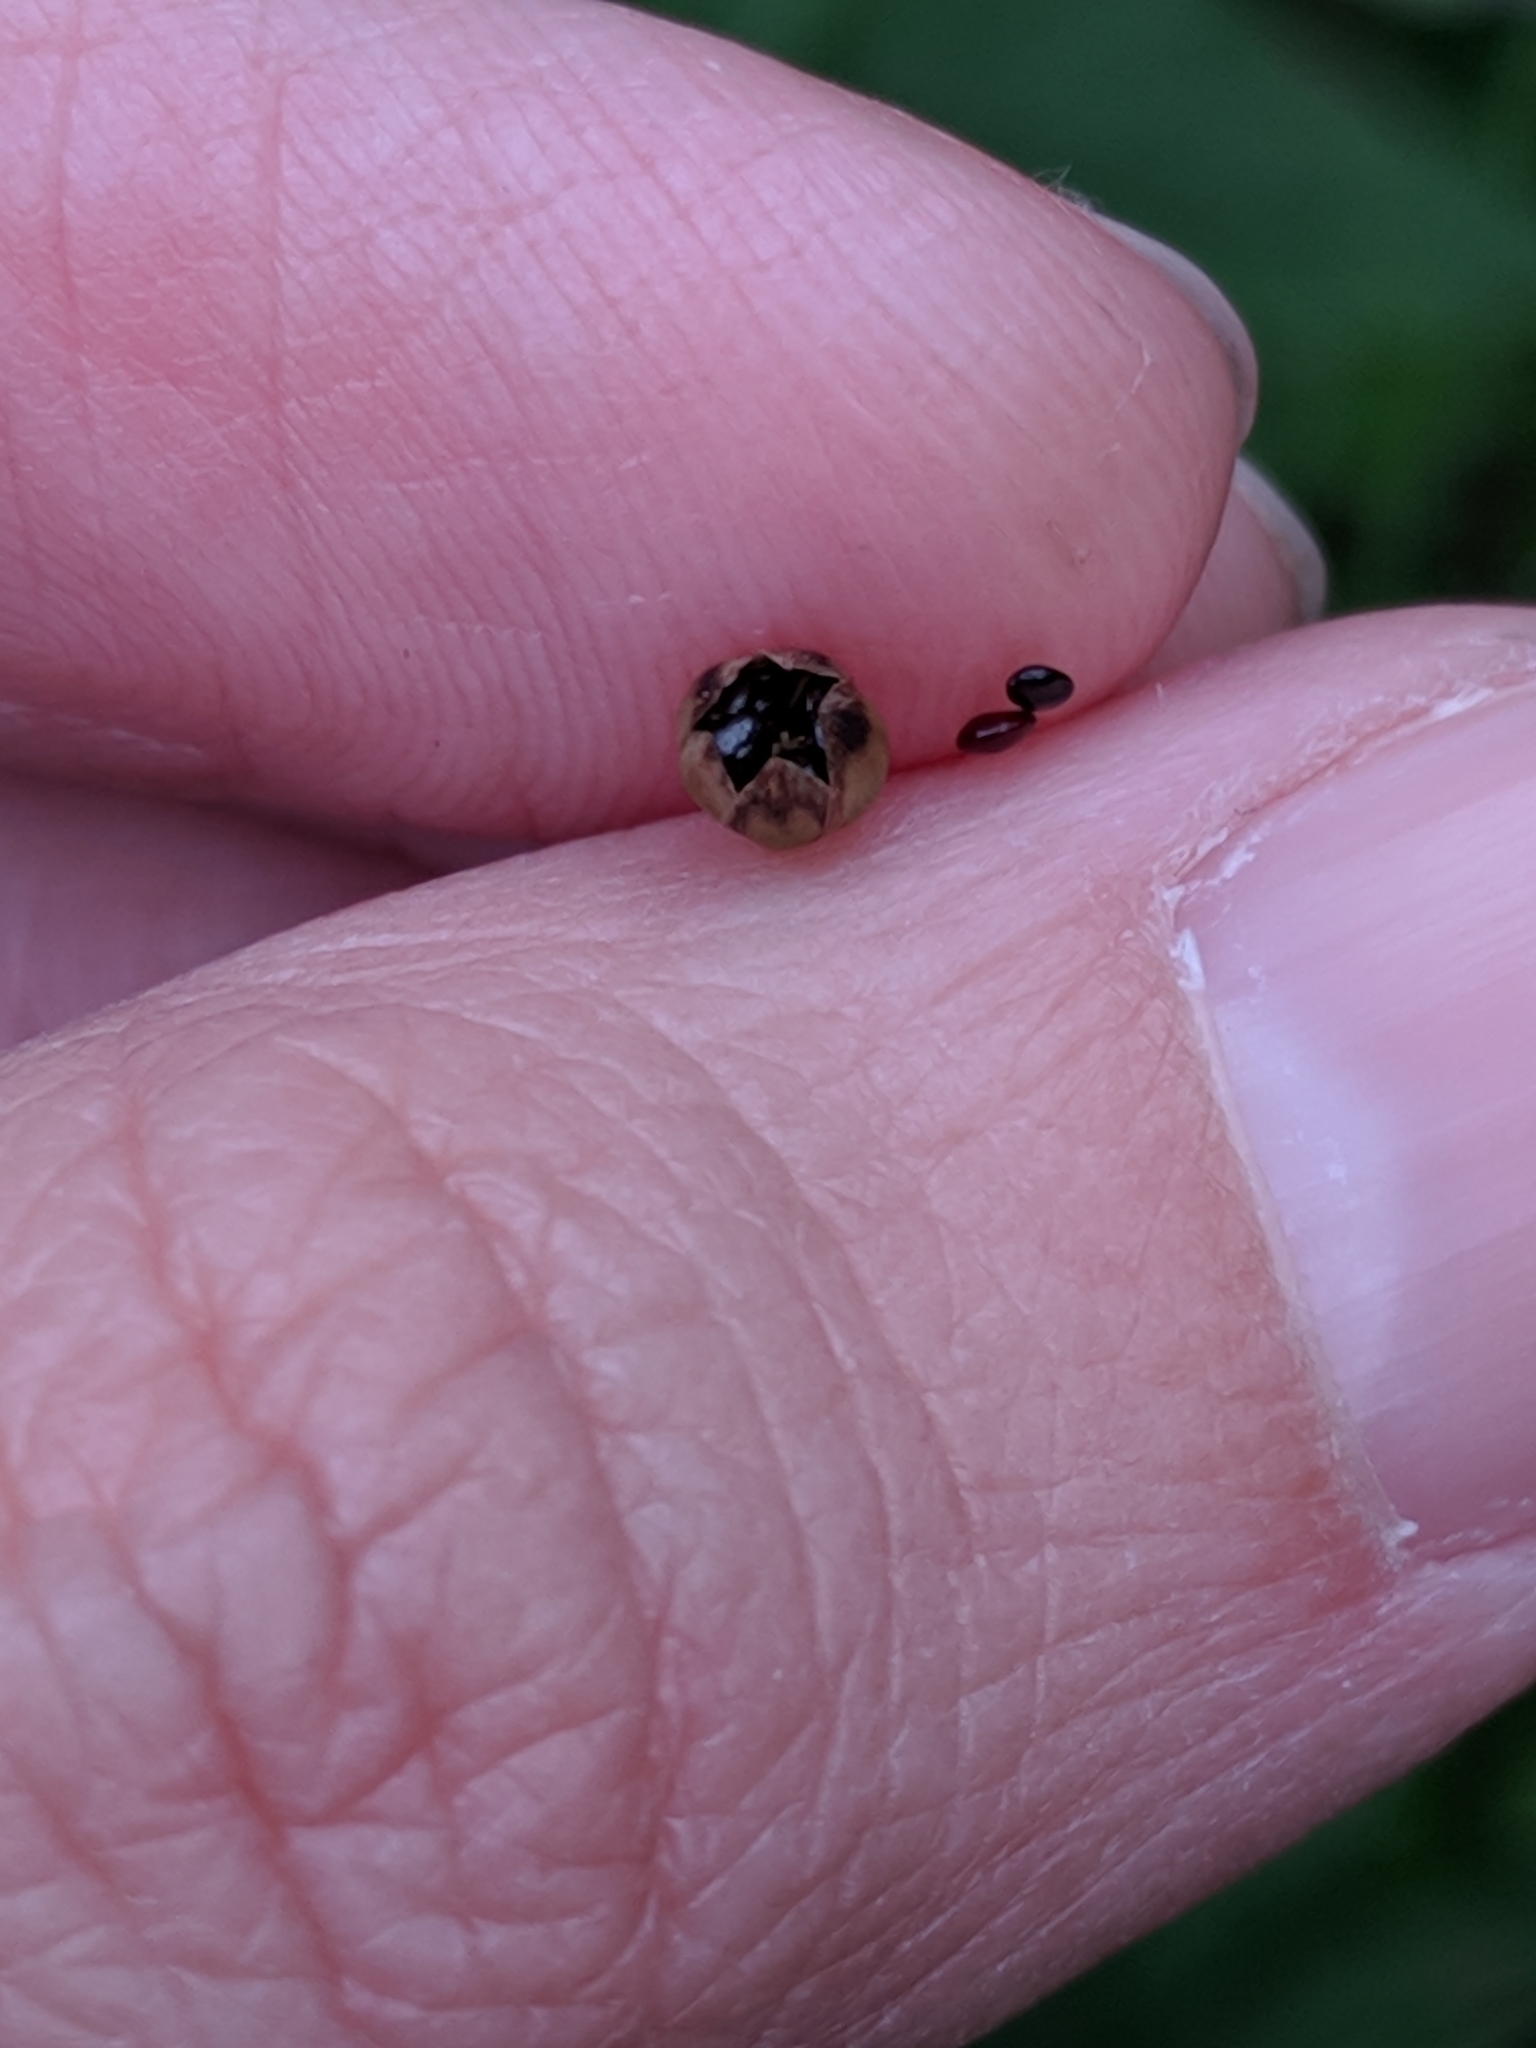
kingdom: Plantae
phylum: Tracheophyta
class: Magnoliopsida
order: Caryophyllales
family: Amaranthaceae
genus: Celosia
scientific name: Celosia nitida
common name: West indian cock's comb
